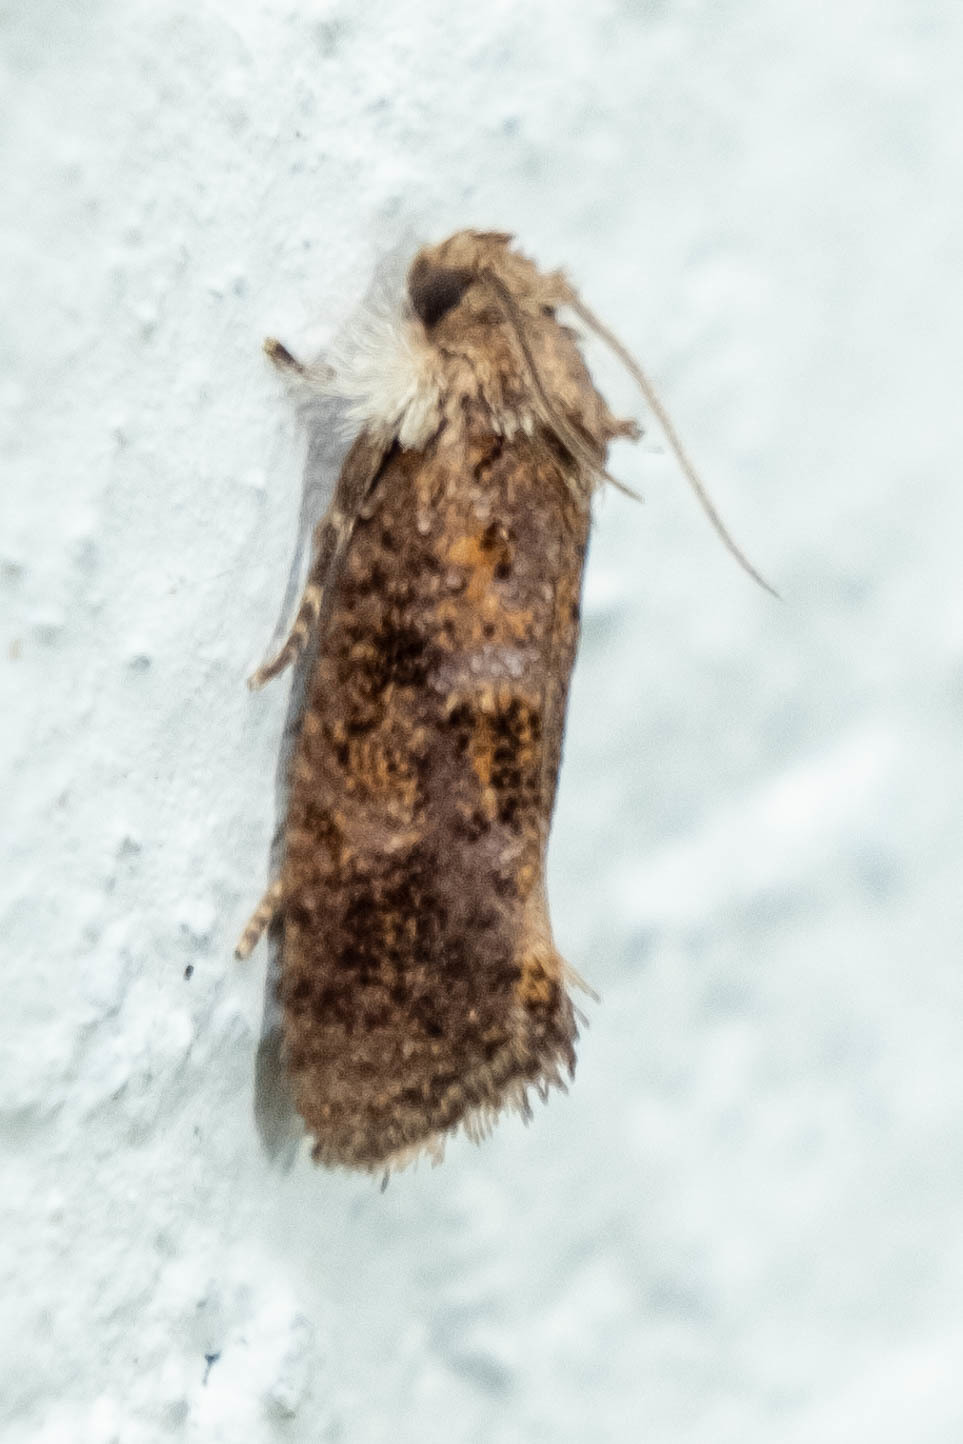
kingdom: Animalia
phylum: Arthropoda
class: Insecta
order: Lepidoptera
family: Tineidae
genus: Acrolophus
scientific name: Acrolophus panamae
